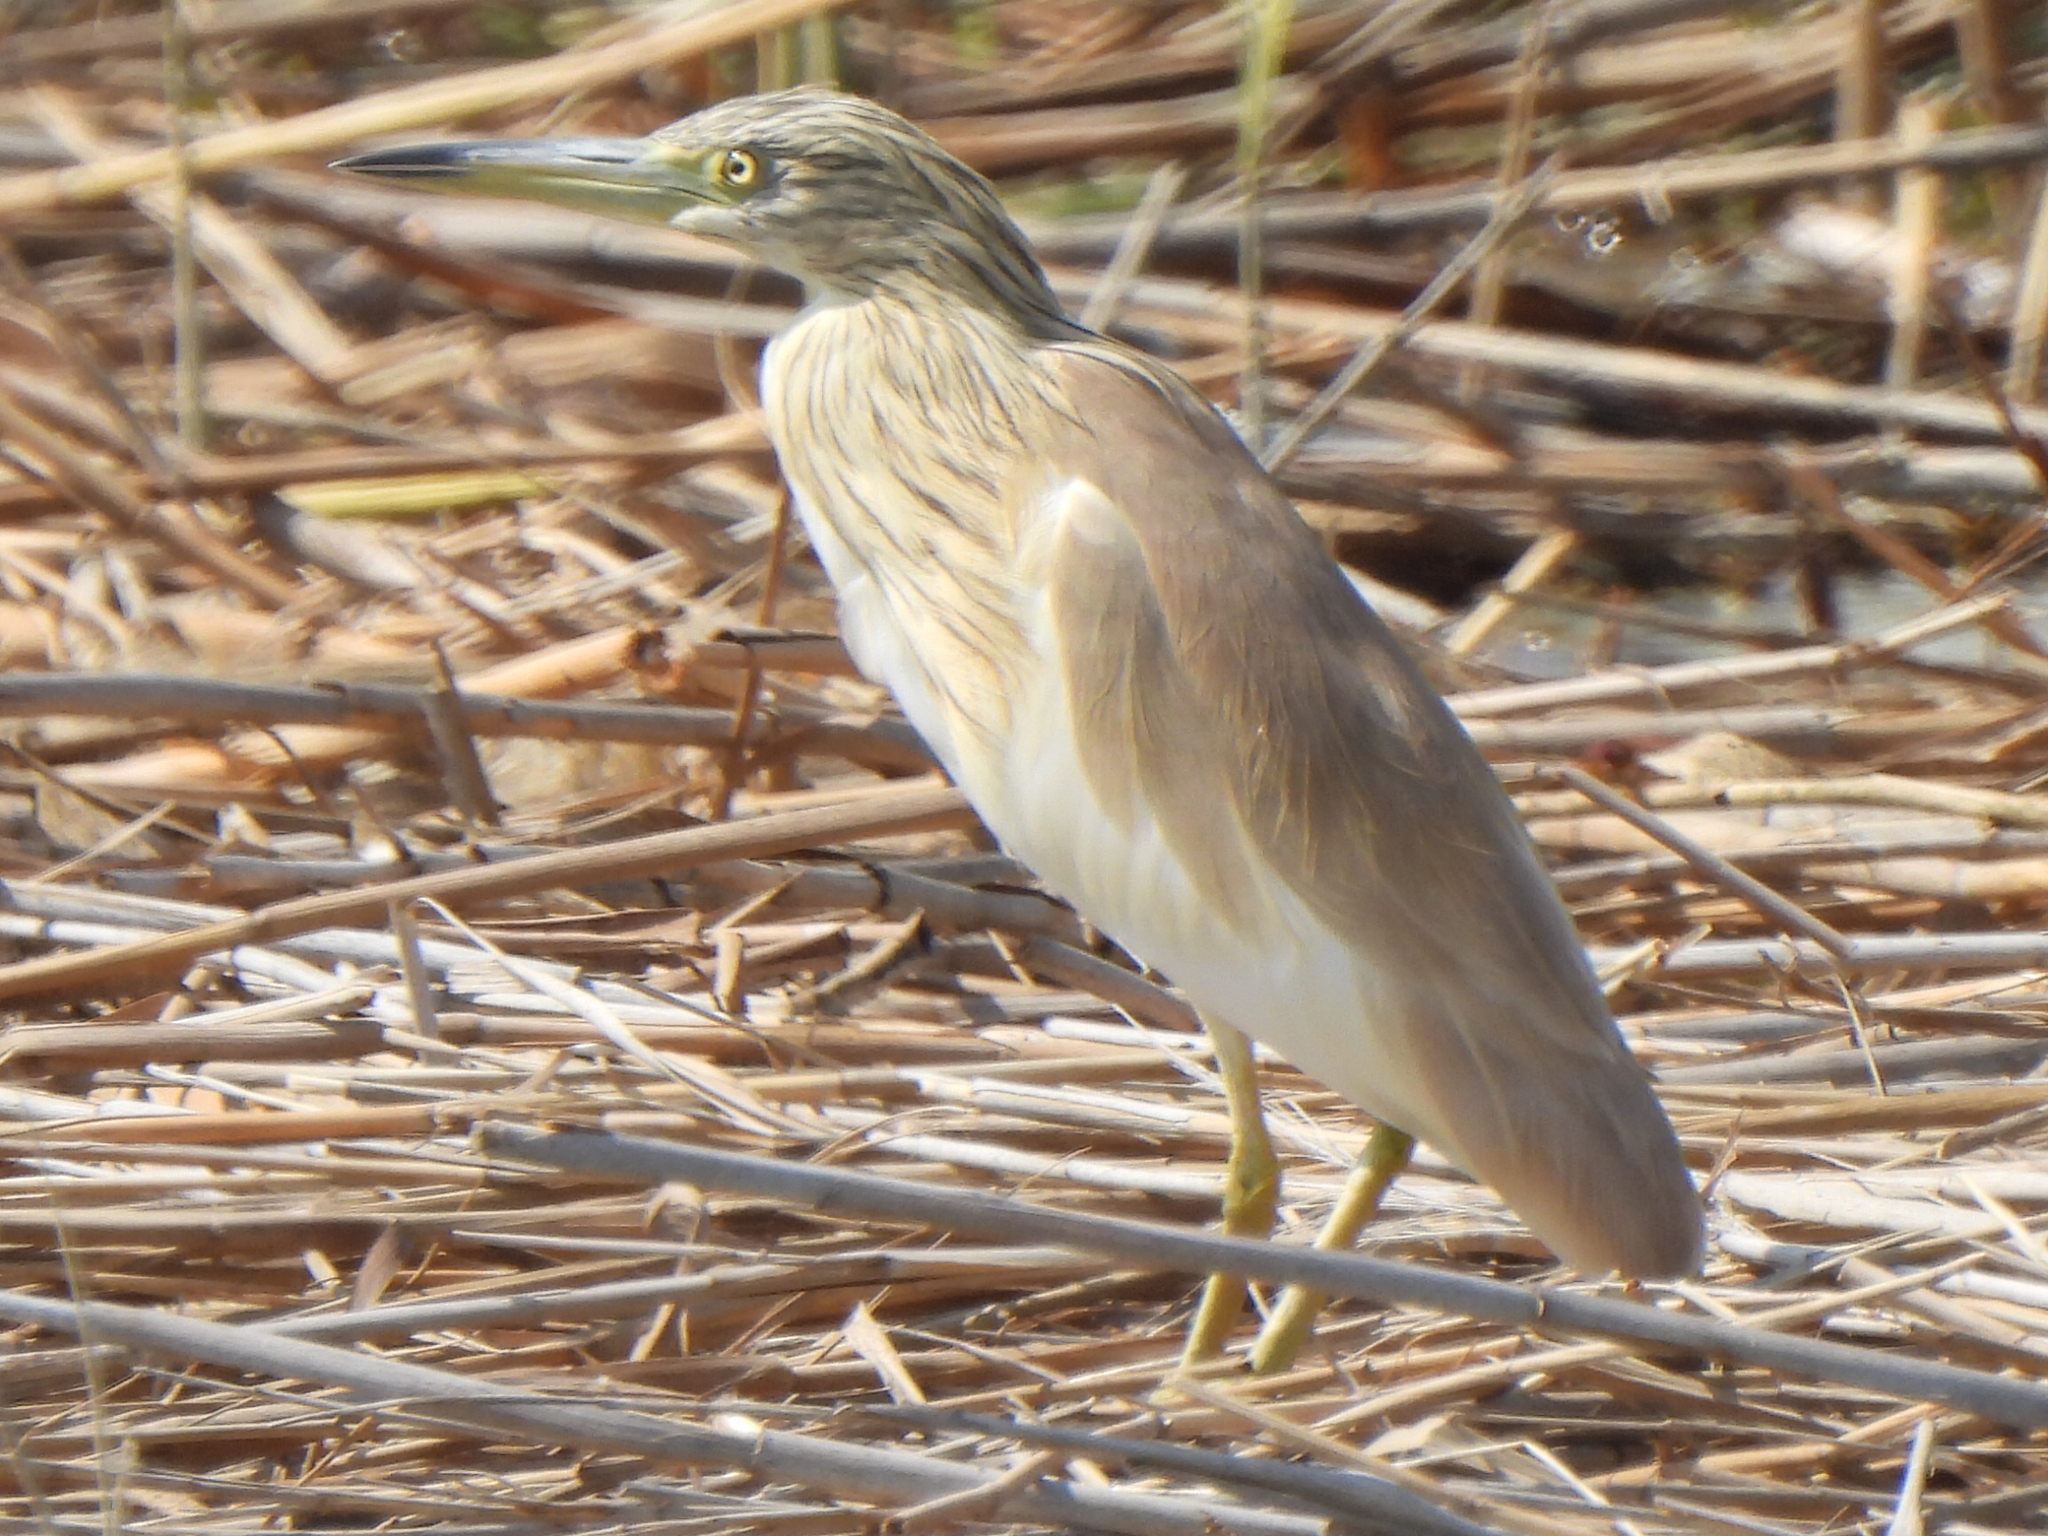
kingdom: Animalia
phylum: Chordata
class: Aves
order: Pelecaniformes
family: Ardeidae
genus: Ardeola
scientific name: Ardeola ralloides
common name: Squacco heron
